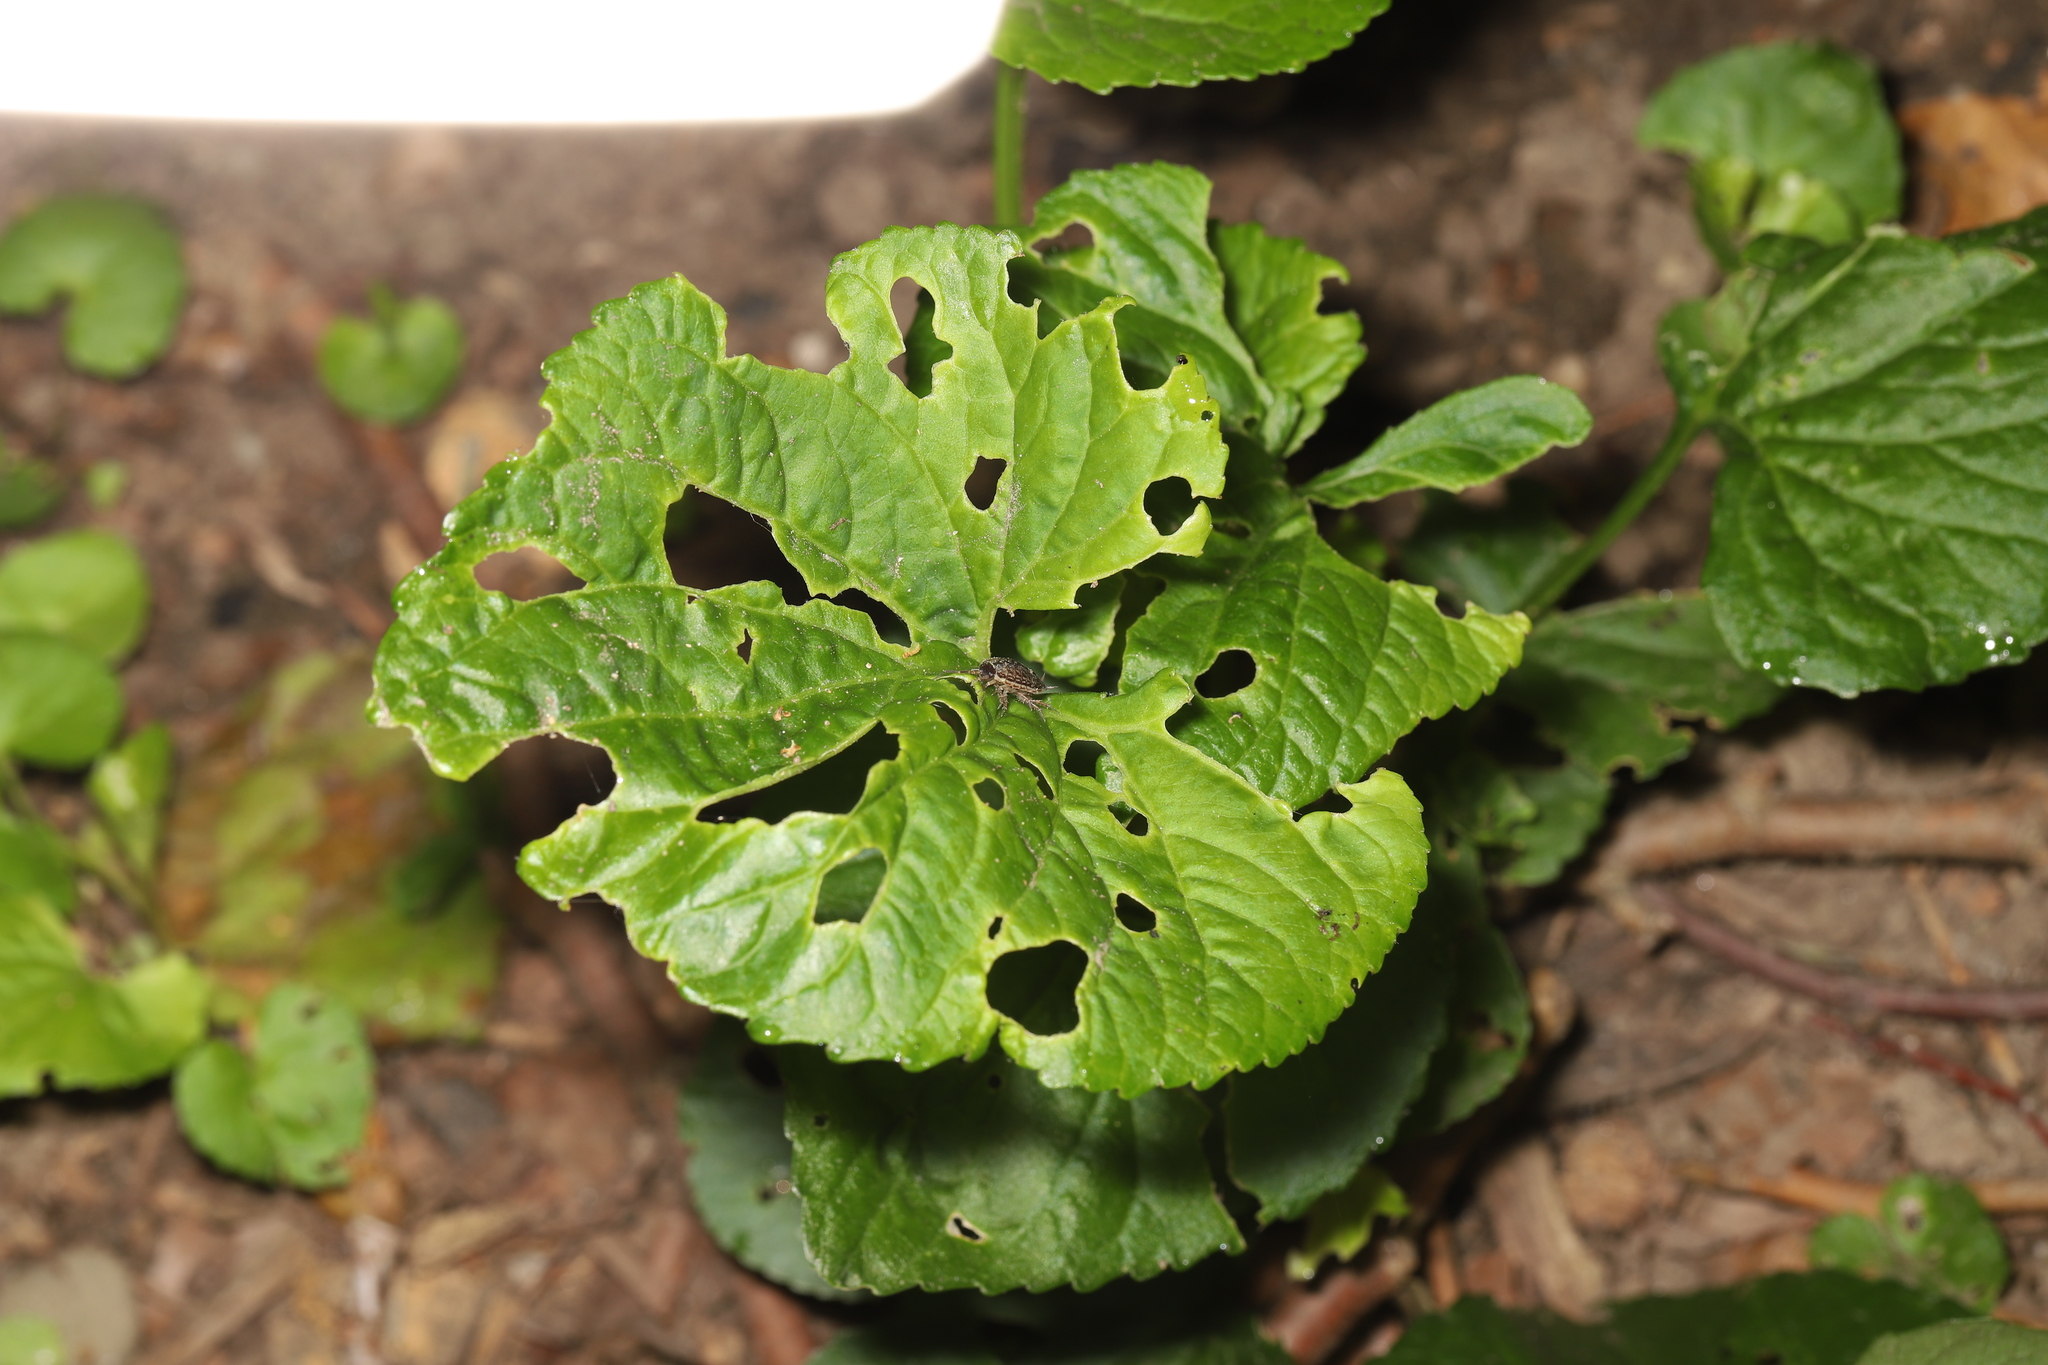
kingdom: Animalia
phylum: Arthropoda
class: Malacostraca
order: Isopoda
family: Philosciidae
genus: Philoscia
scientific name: Philoscia muscorum
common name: Common striped woodlouse
